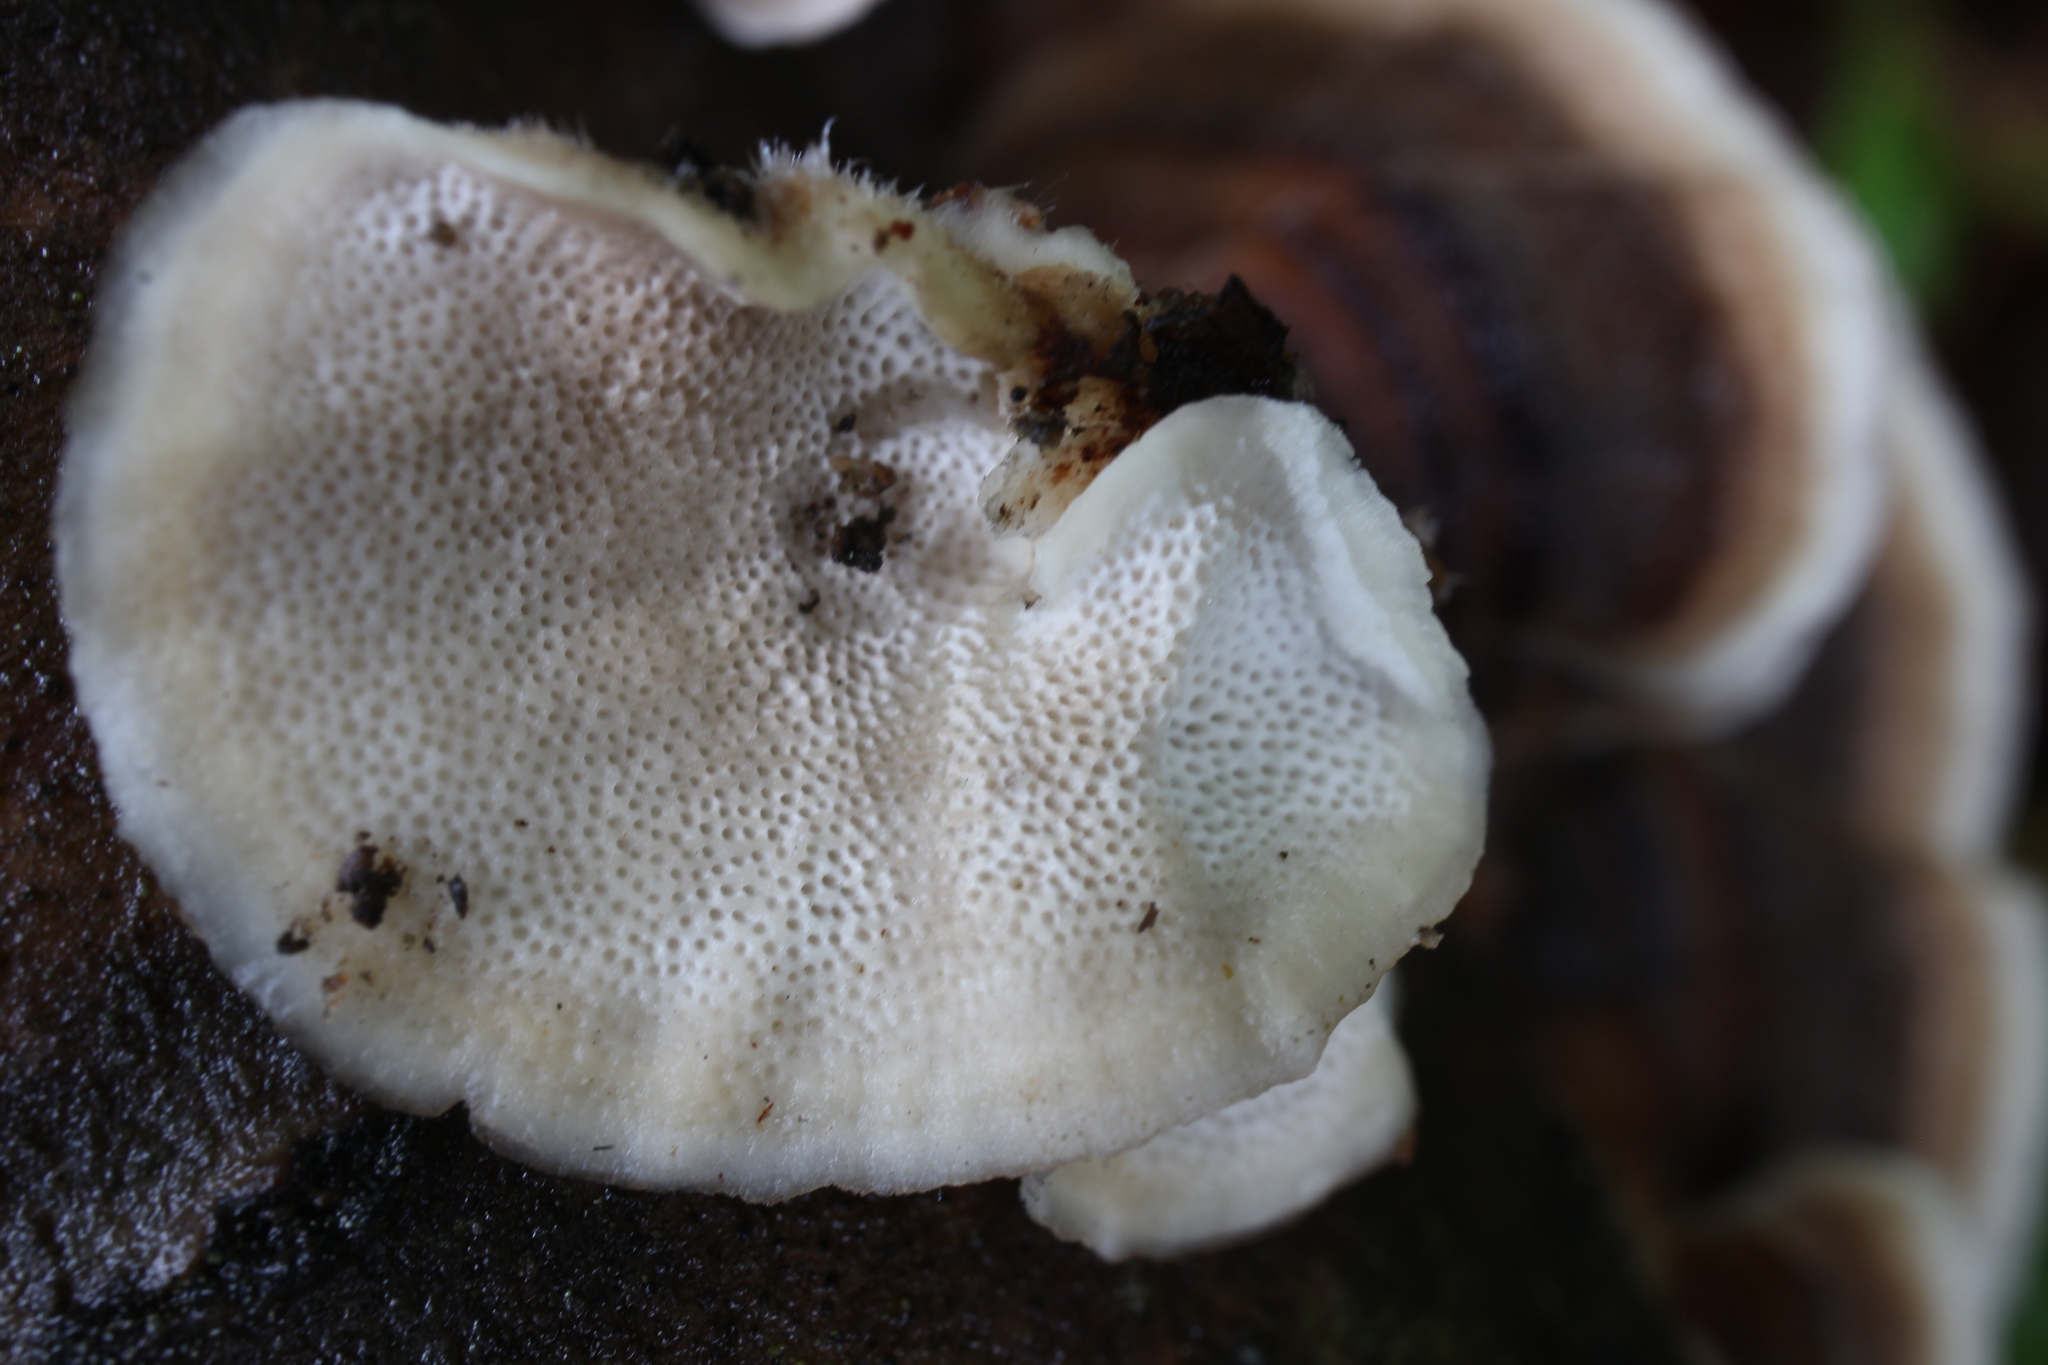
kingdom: Fungi
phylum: Basidiomycota
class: Agaricomycetes
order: Polyporales
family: Polyporaceae
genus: Trametes
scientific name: Trametes versicolor
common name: Turkeytail
